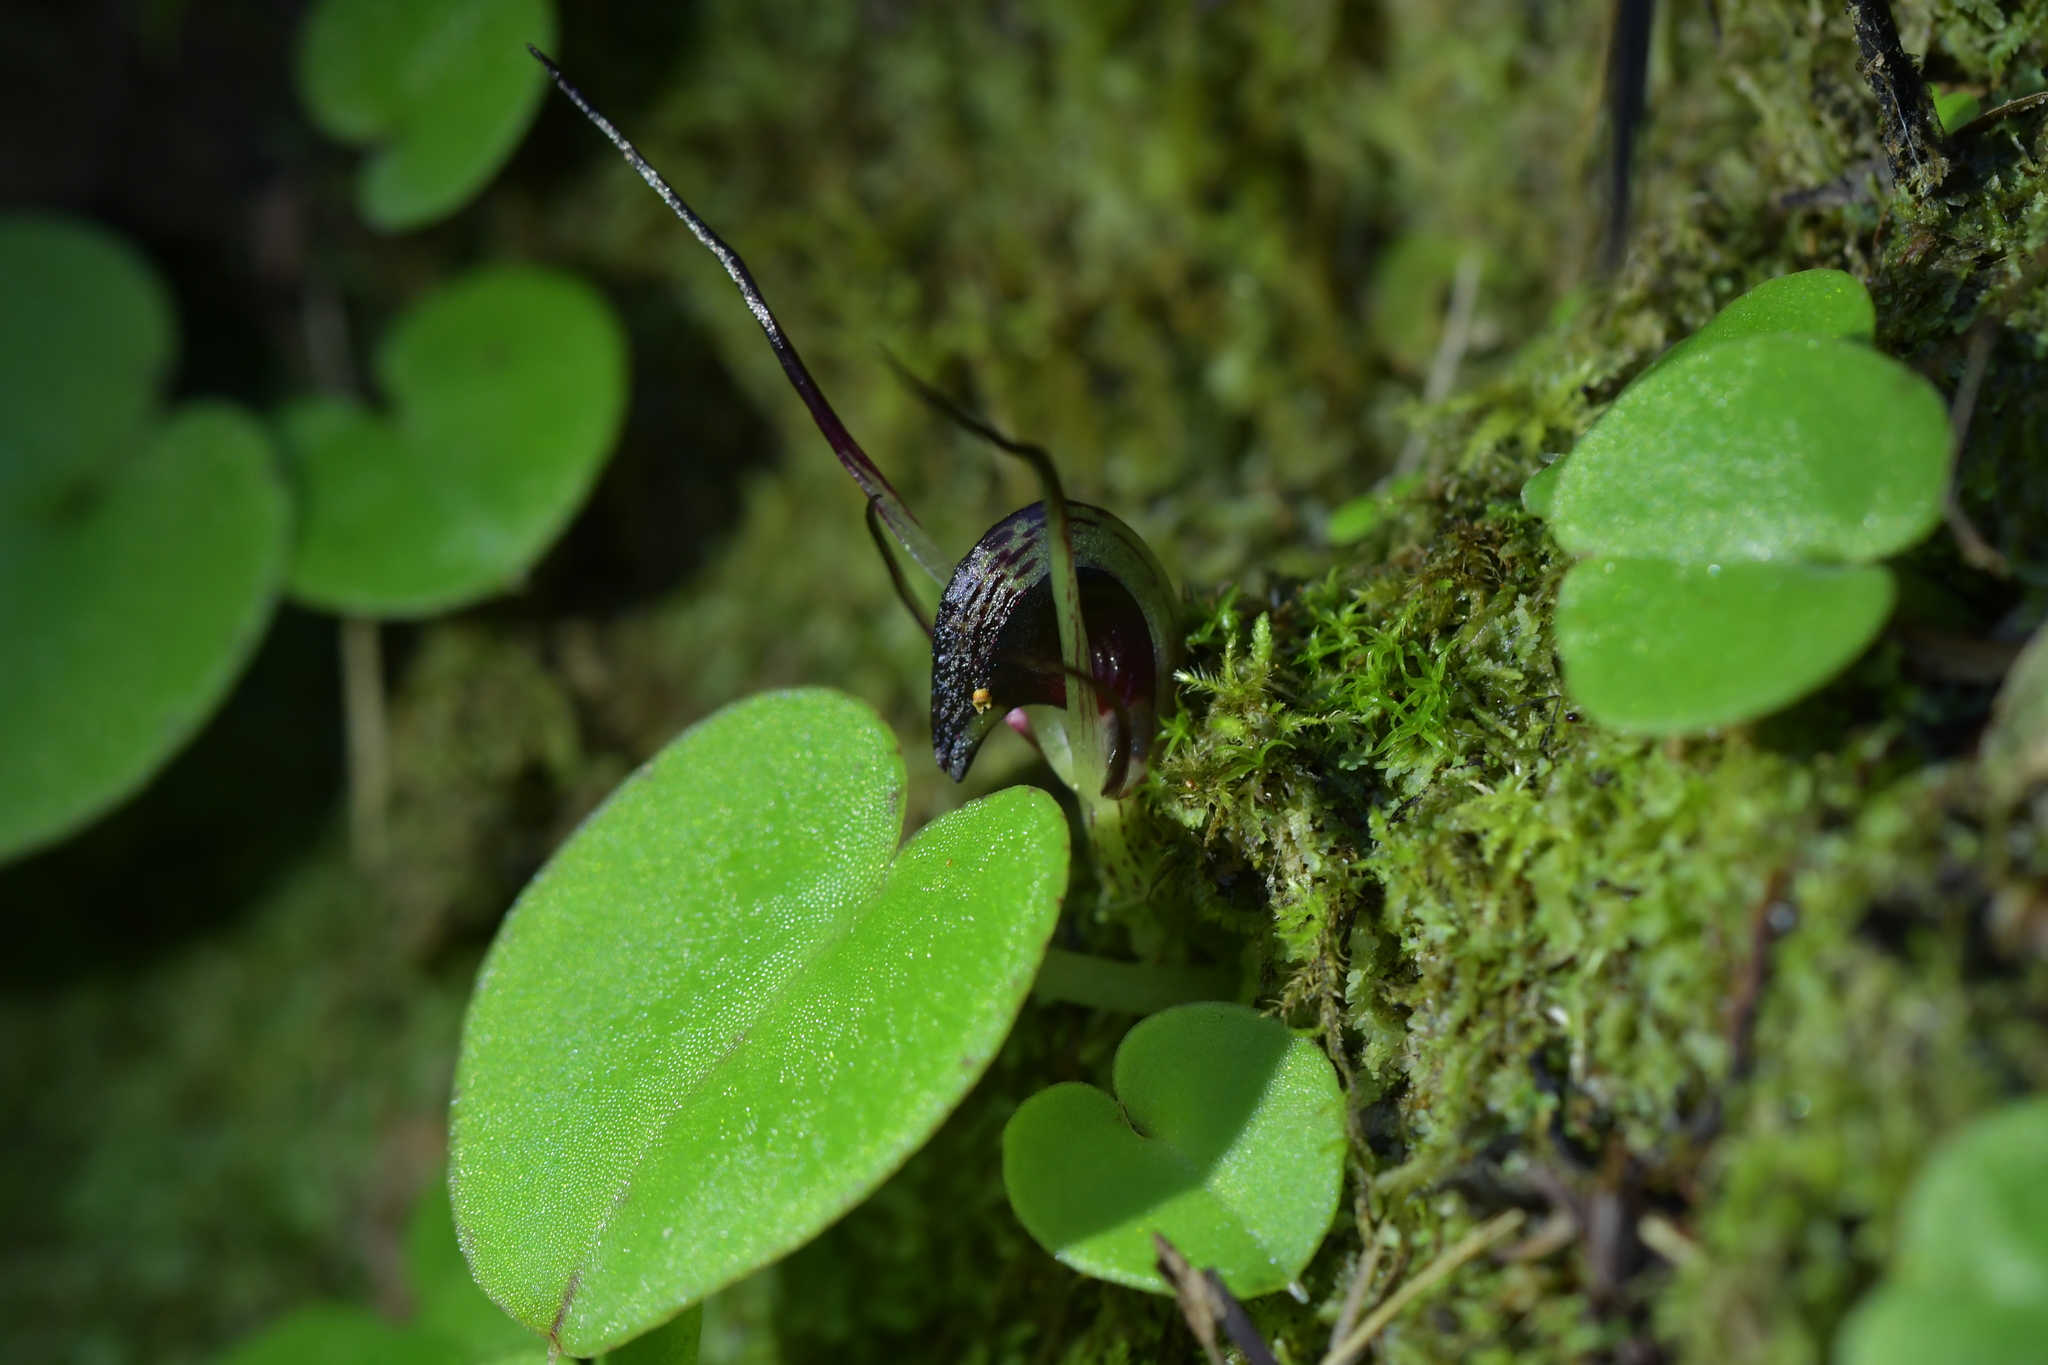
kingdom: Plantae
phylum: Tracheophyta
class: Liliopsida
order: Asparagales
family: Orchidaceae
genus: Corybas
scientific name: Corybas macranthus
